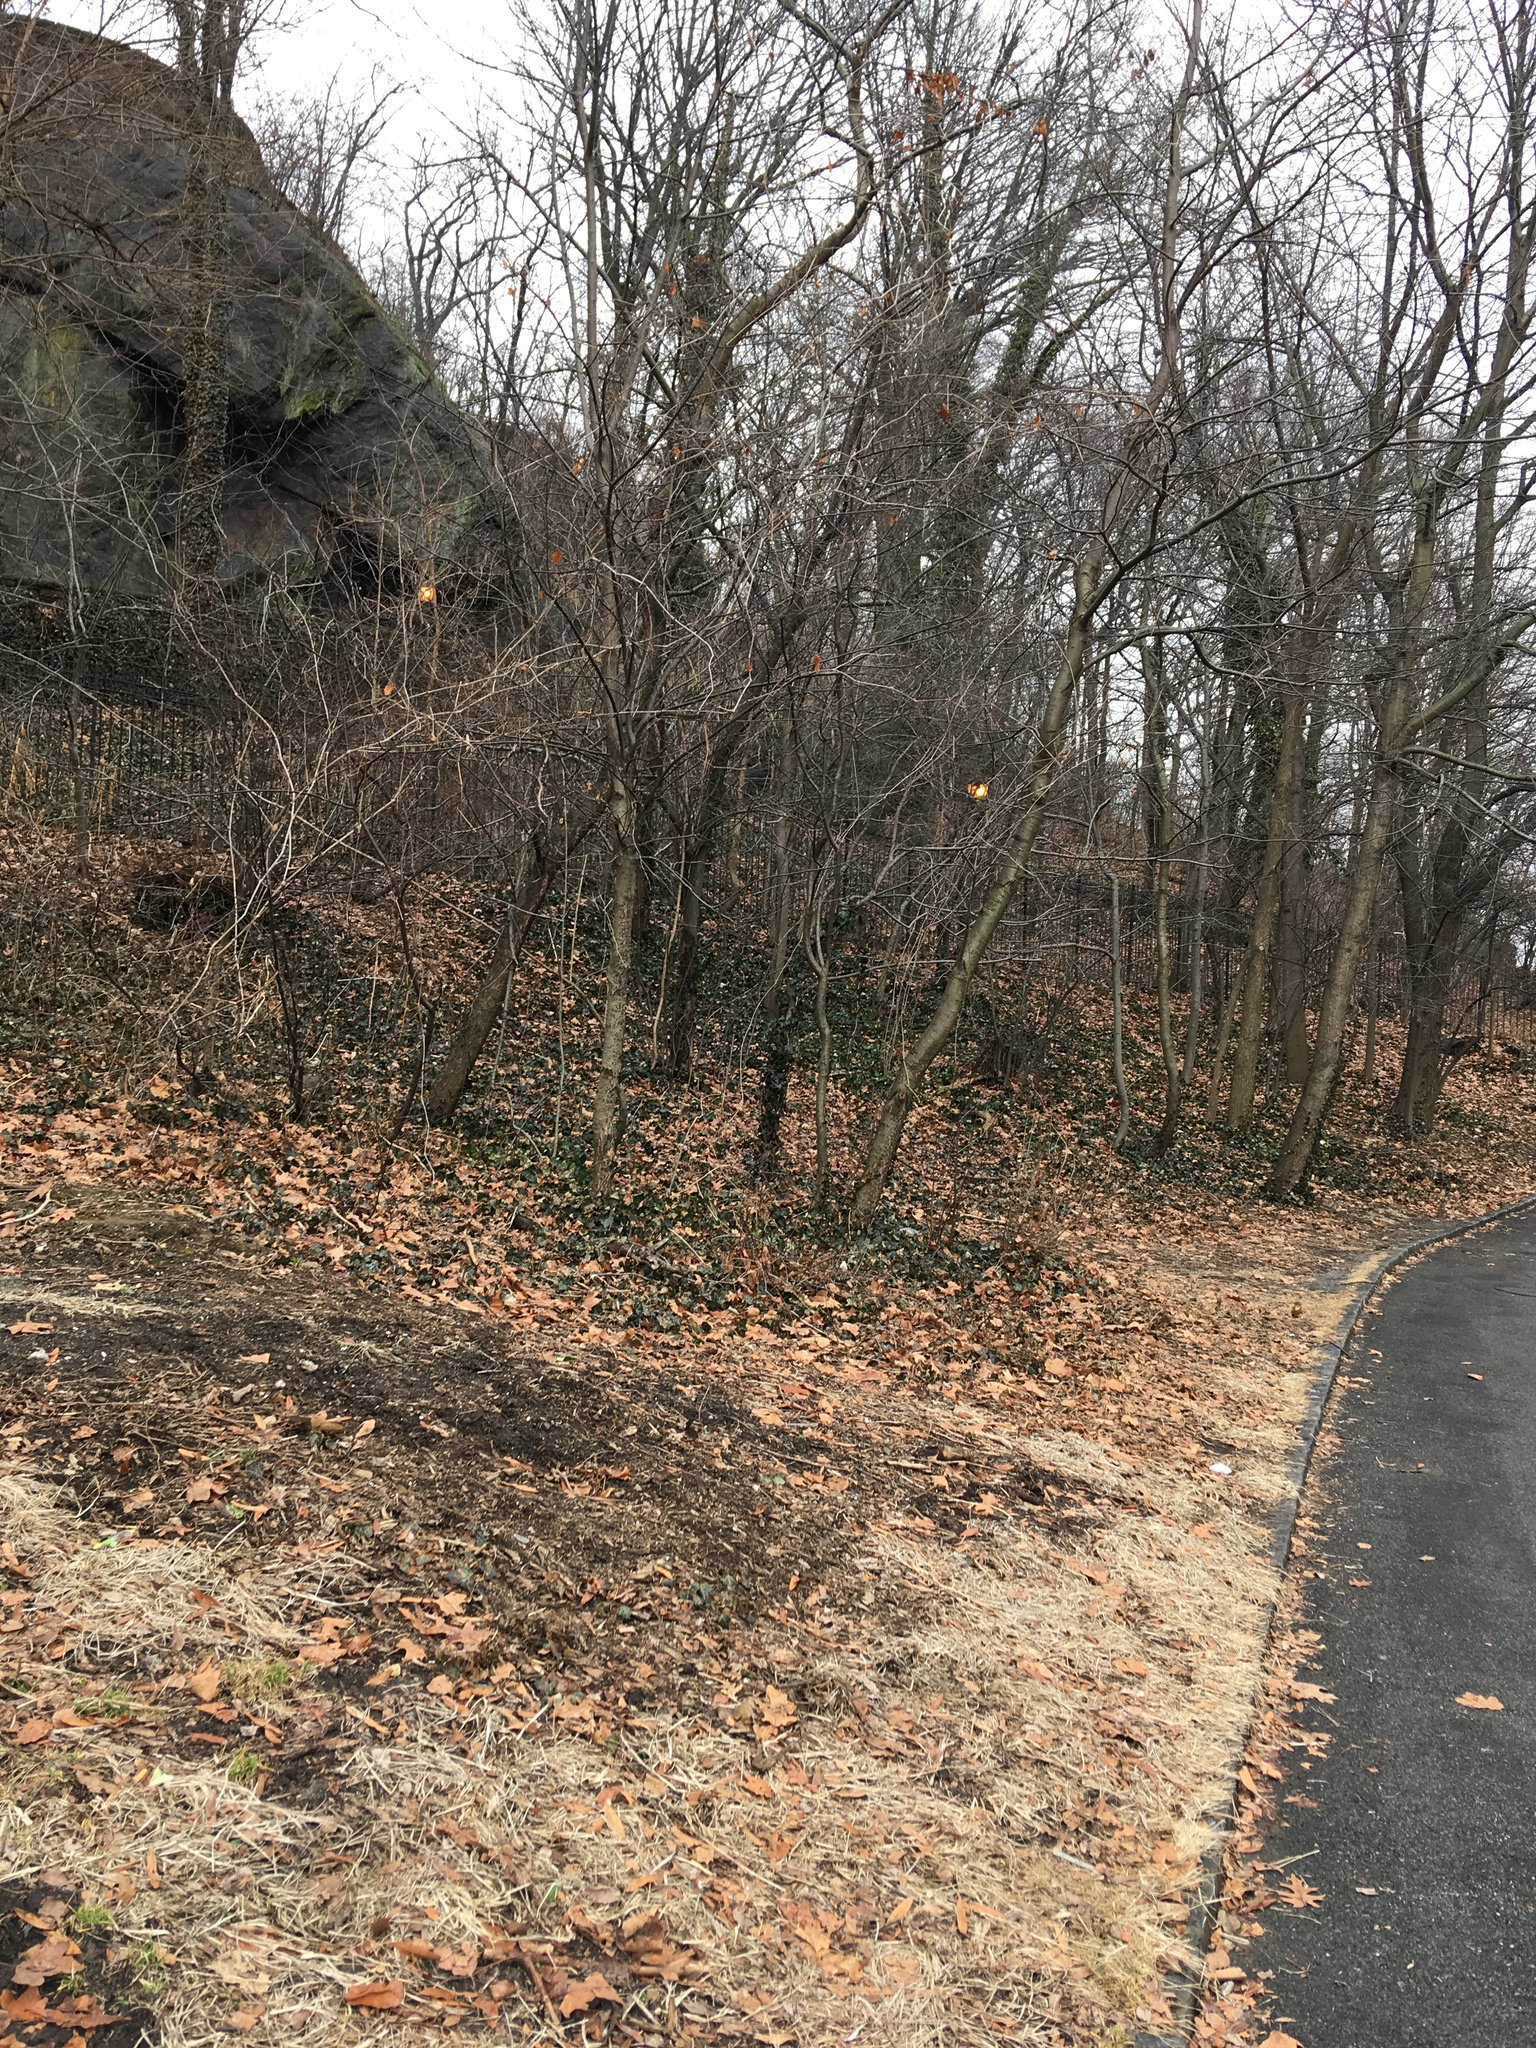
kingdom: Plantae
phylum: Tracheophyta
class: Magnoliopsida
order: Apiales
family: Araliaceae
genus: Hedera
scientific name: Hedera helix
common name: Ivy
